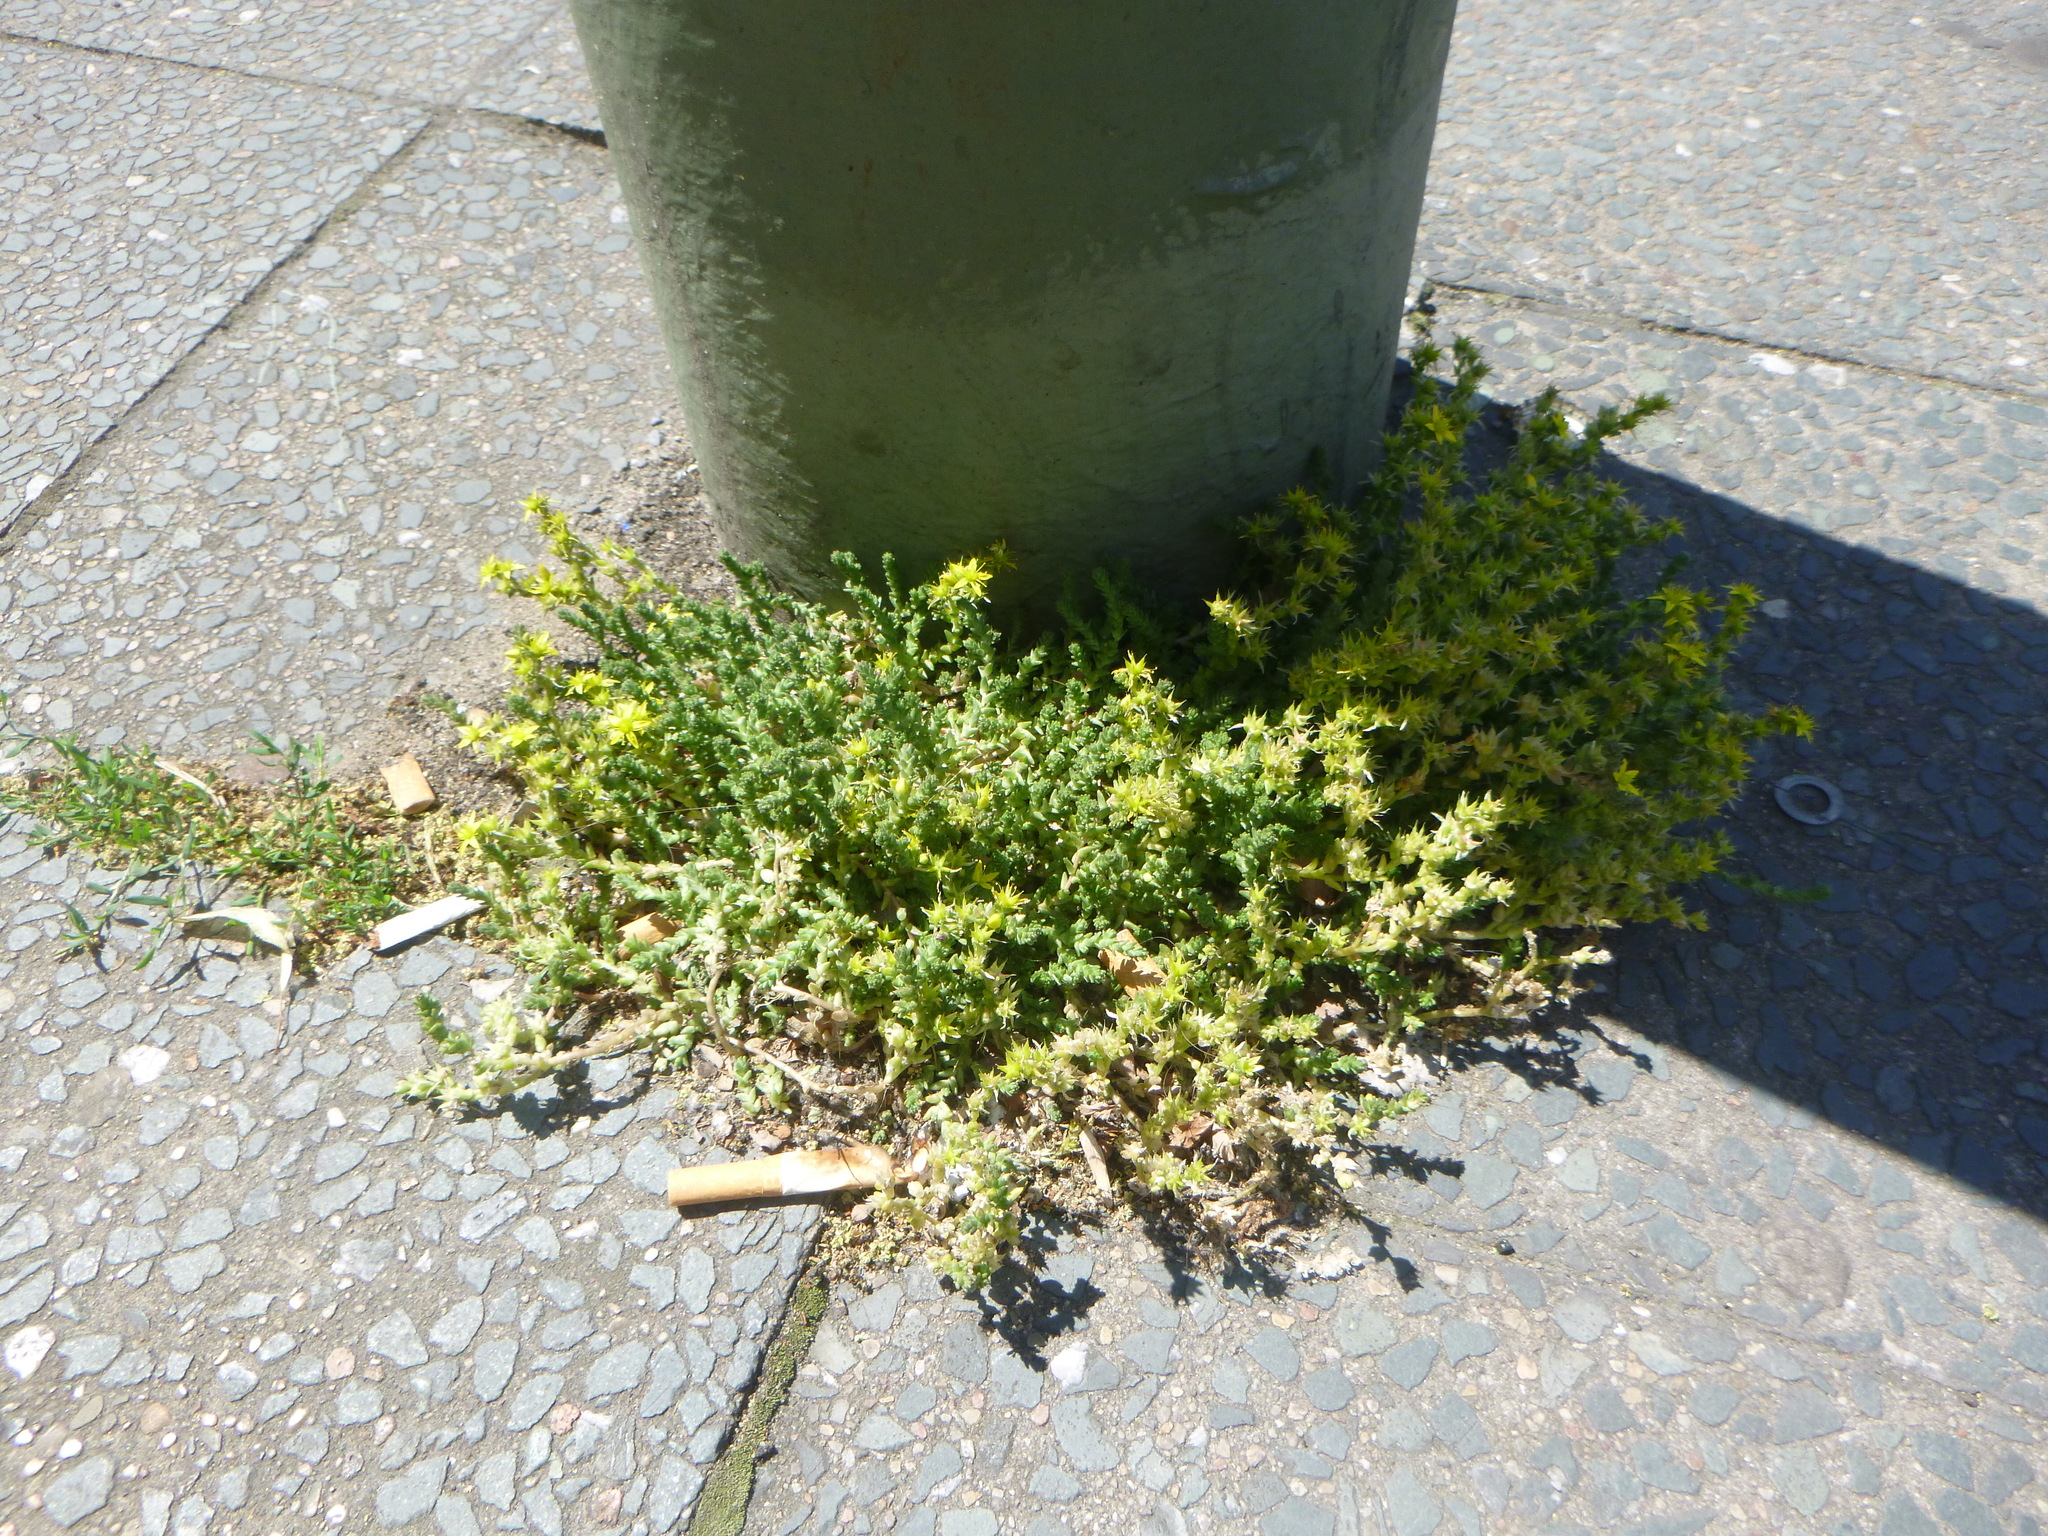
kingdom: Plantae
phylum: Tracheophyta
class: Magnoliopsida
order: Saxifragales
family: Crassulaceae
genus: Sedum
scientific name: Sedum acre
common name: Biting stonecrop
